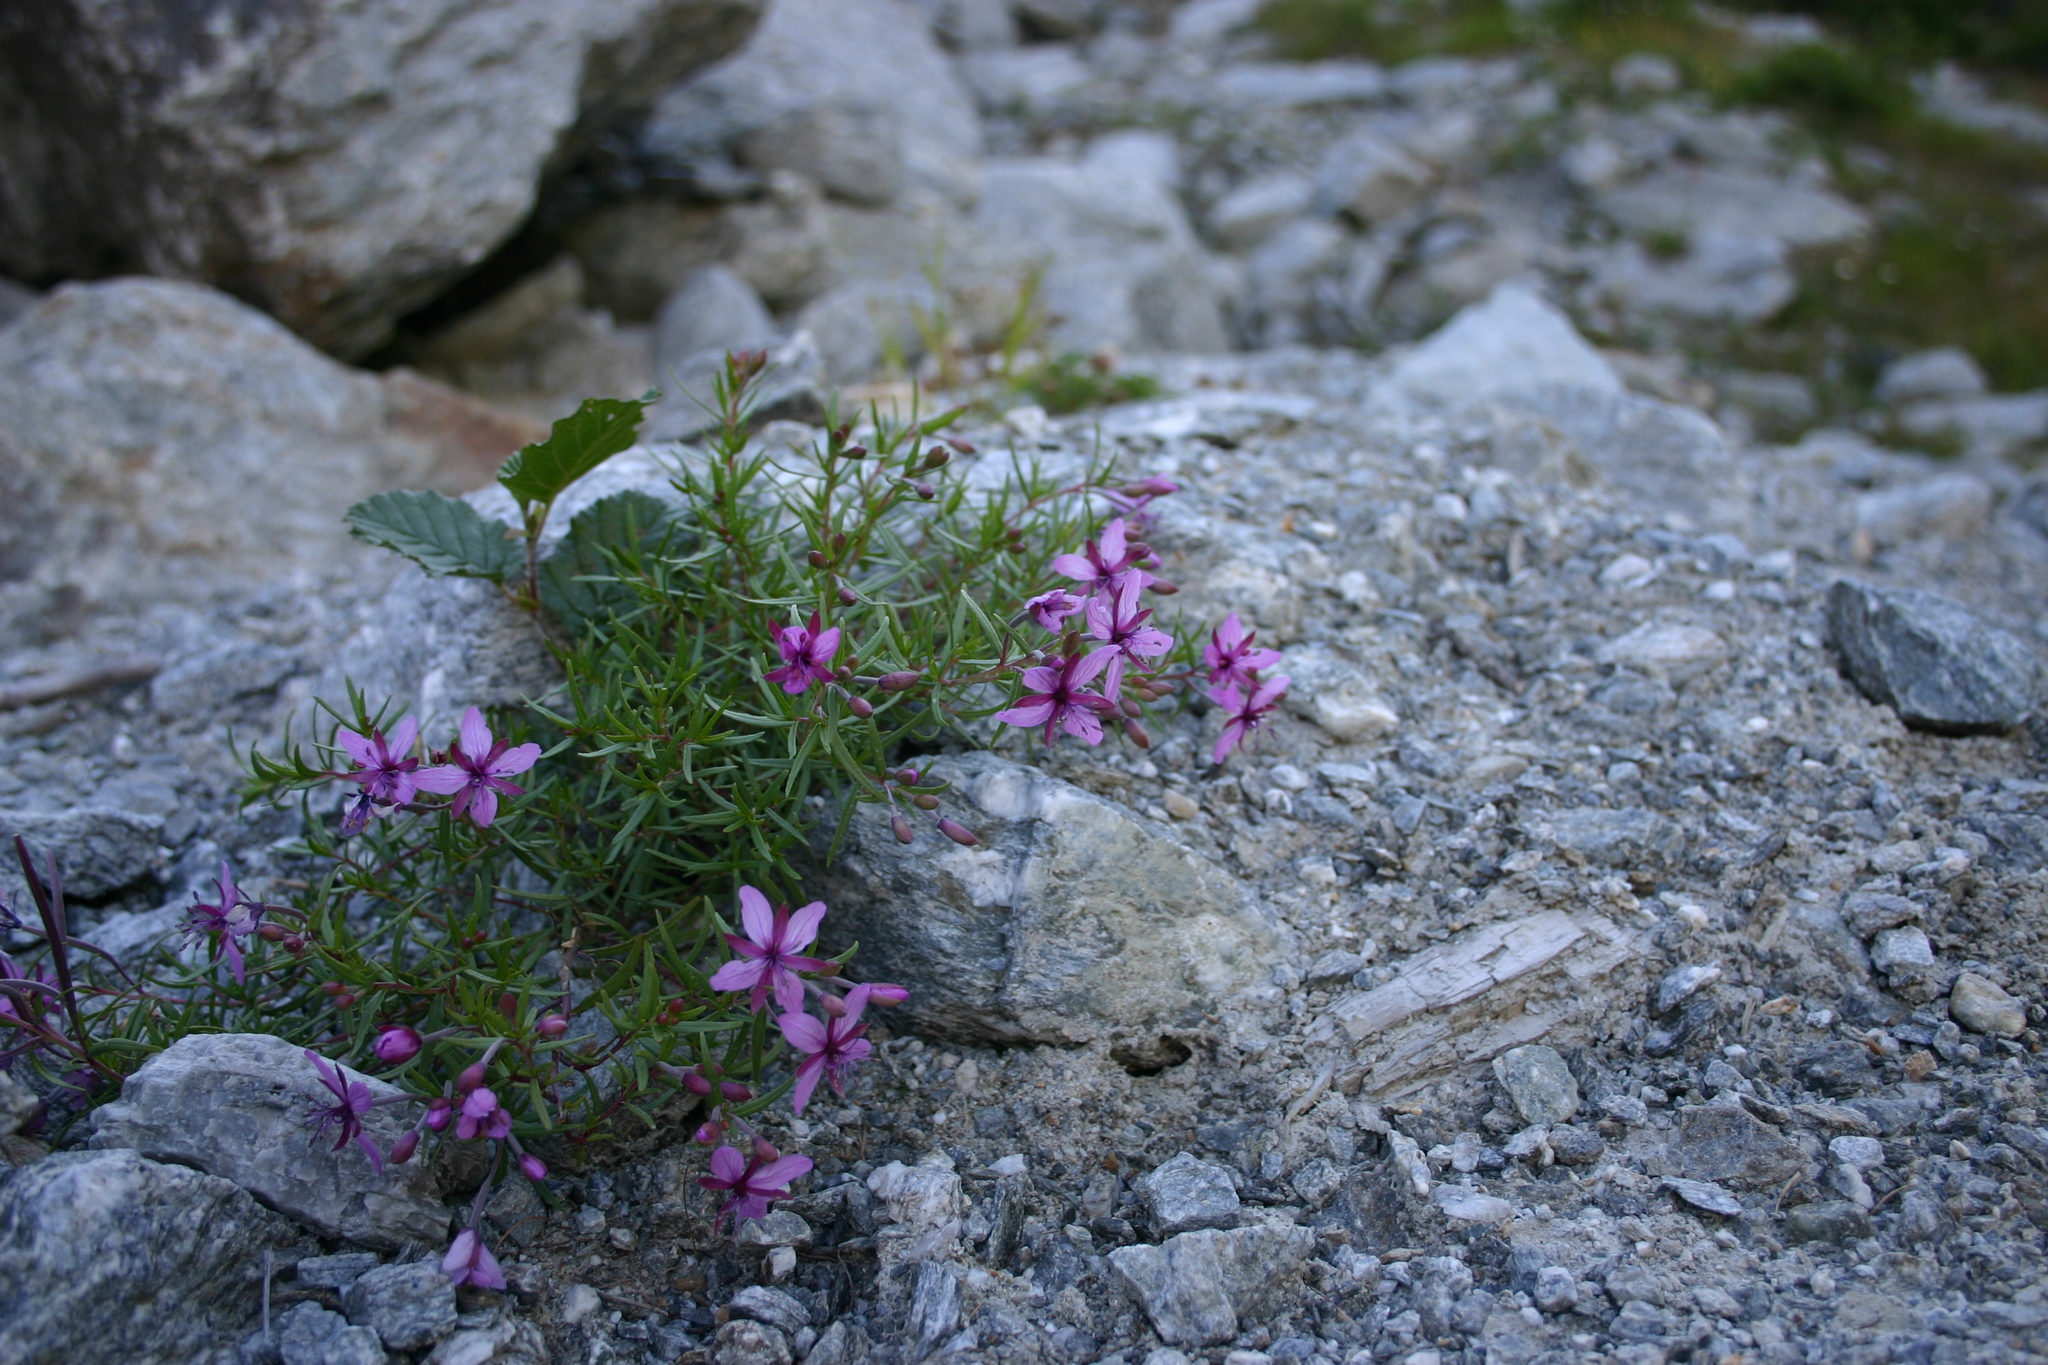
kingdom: Plantae
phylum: Tracheophyta
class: Magnoliopsida
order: Myrtales
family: Onagraceae
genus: Chamaenerion
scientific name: Chamaenerion fleischeri
